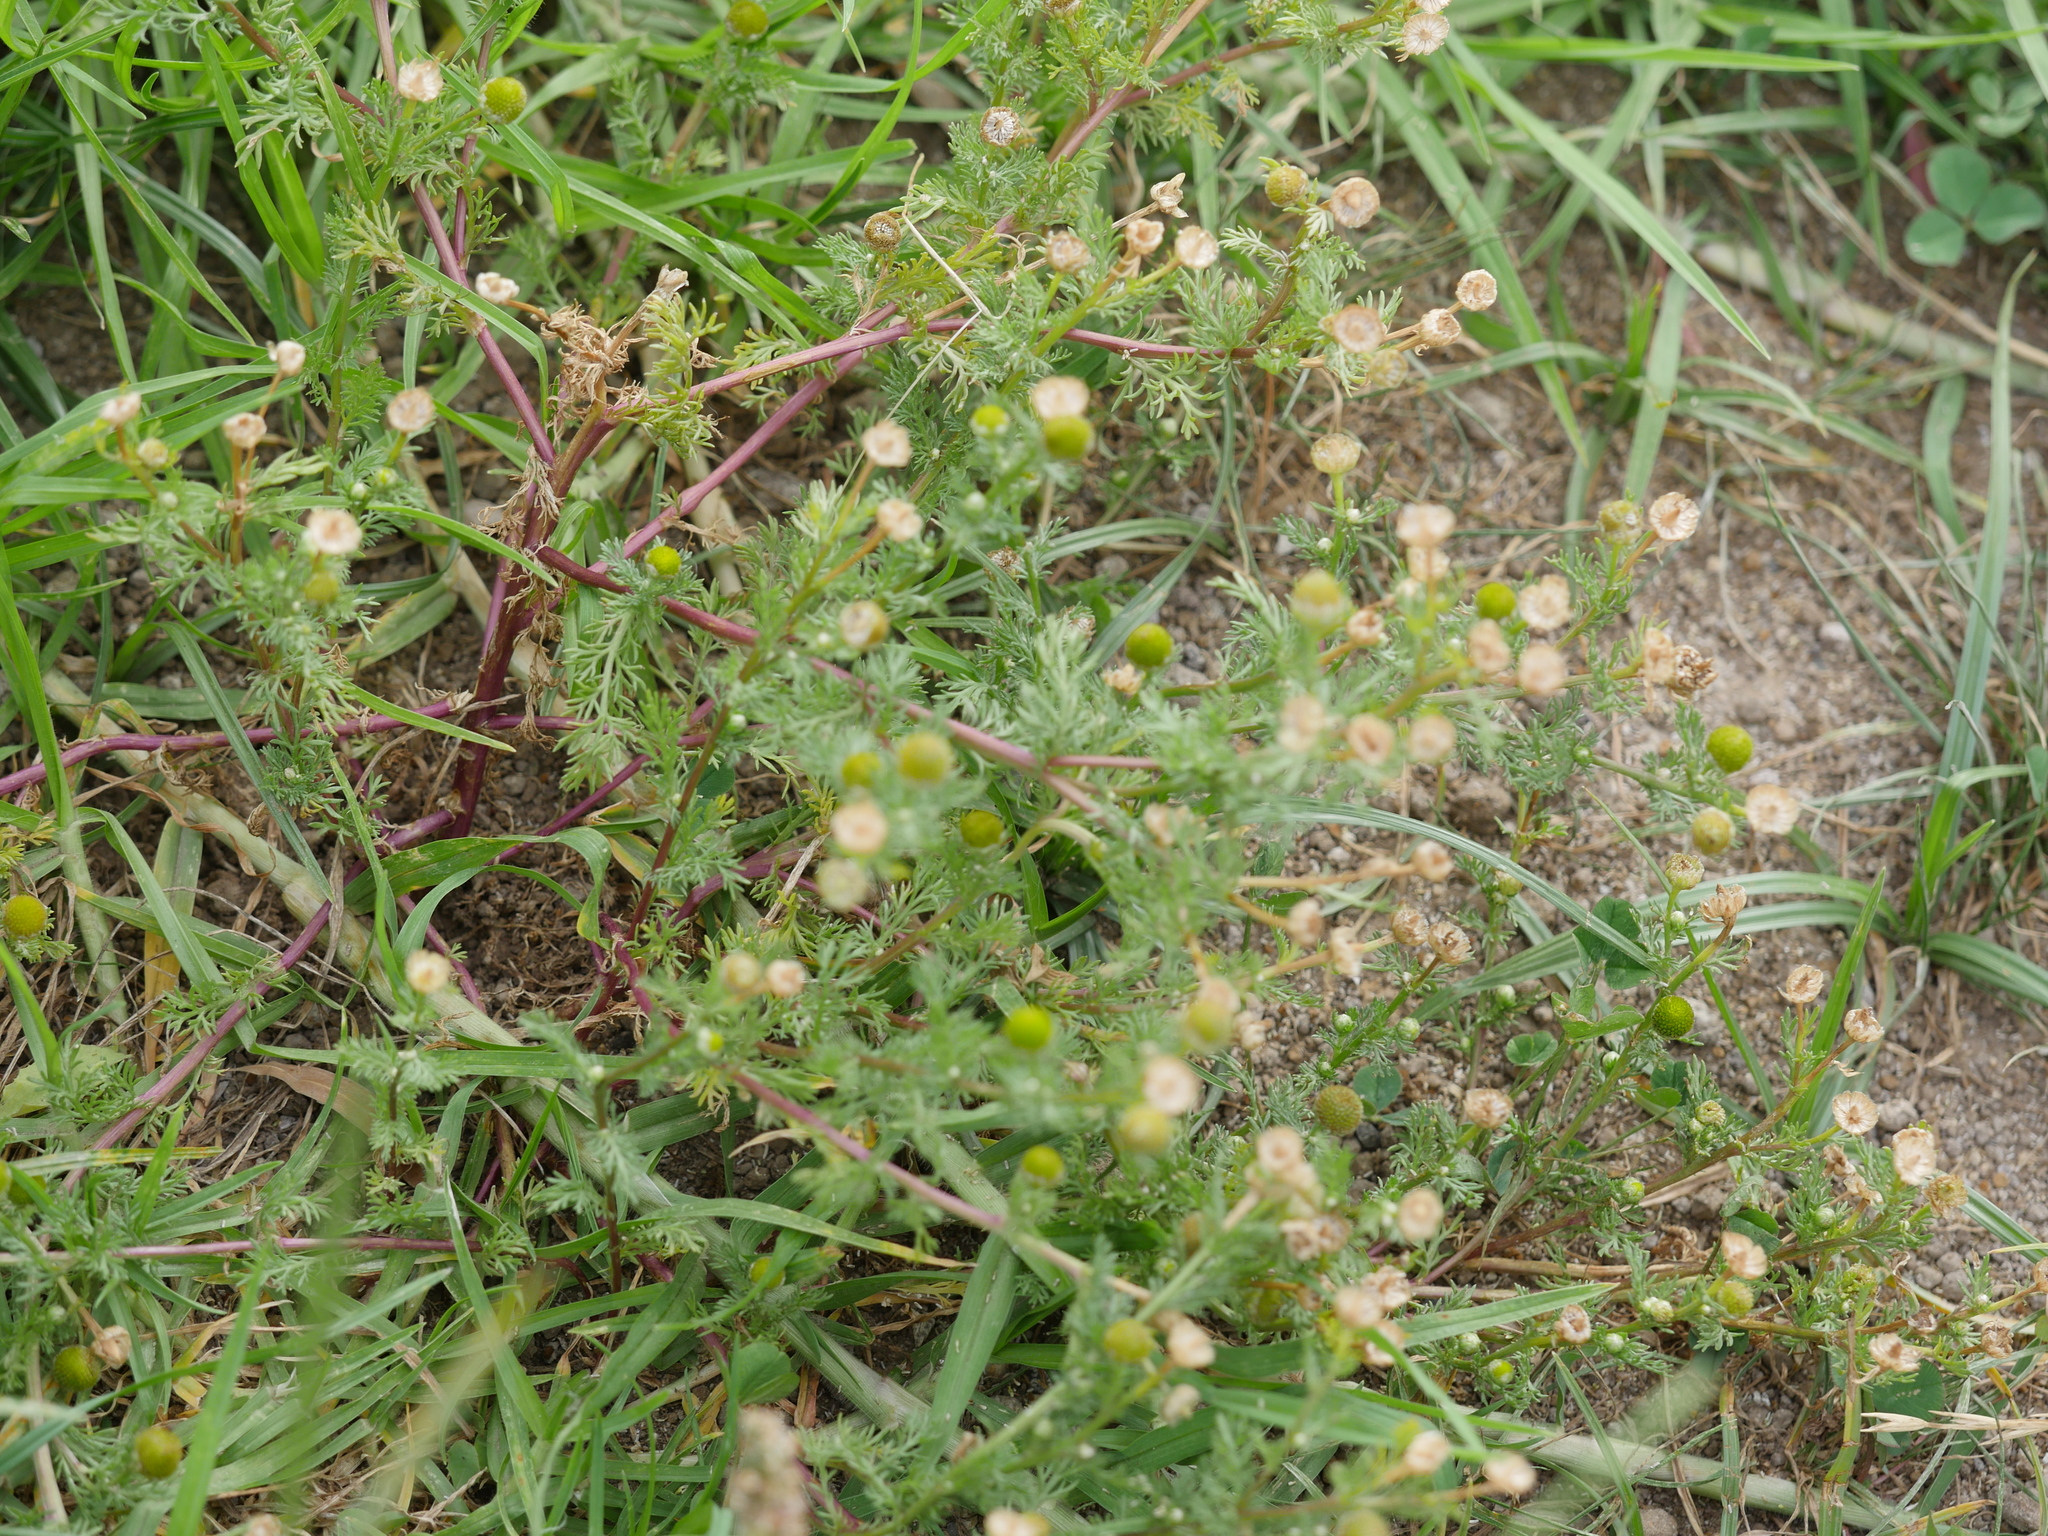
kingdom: Plantae
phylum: Tracheophyta
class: Magnoliopsida
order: Asterales
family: Asteraceae
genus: Matricaria
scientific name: Matricaria discoidea
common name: Disc mayweed
